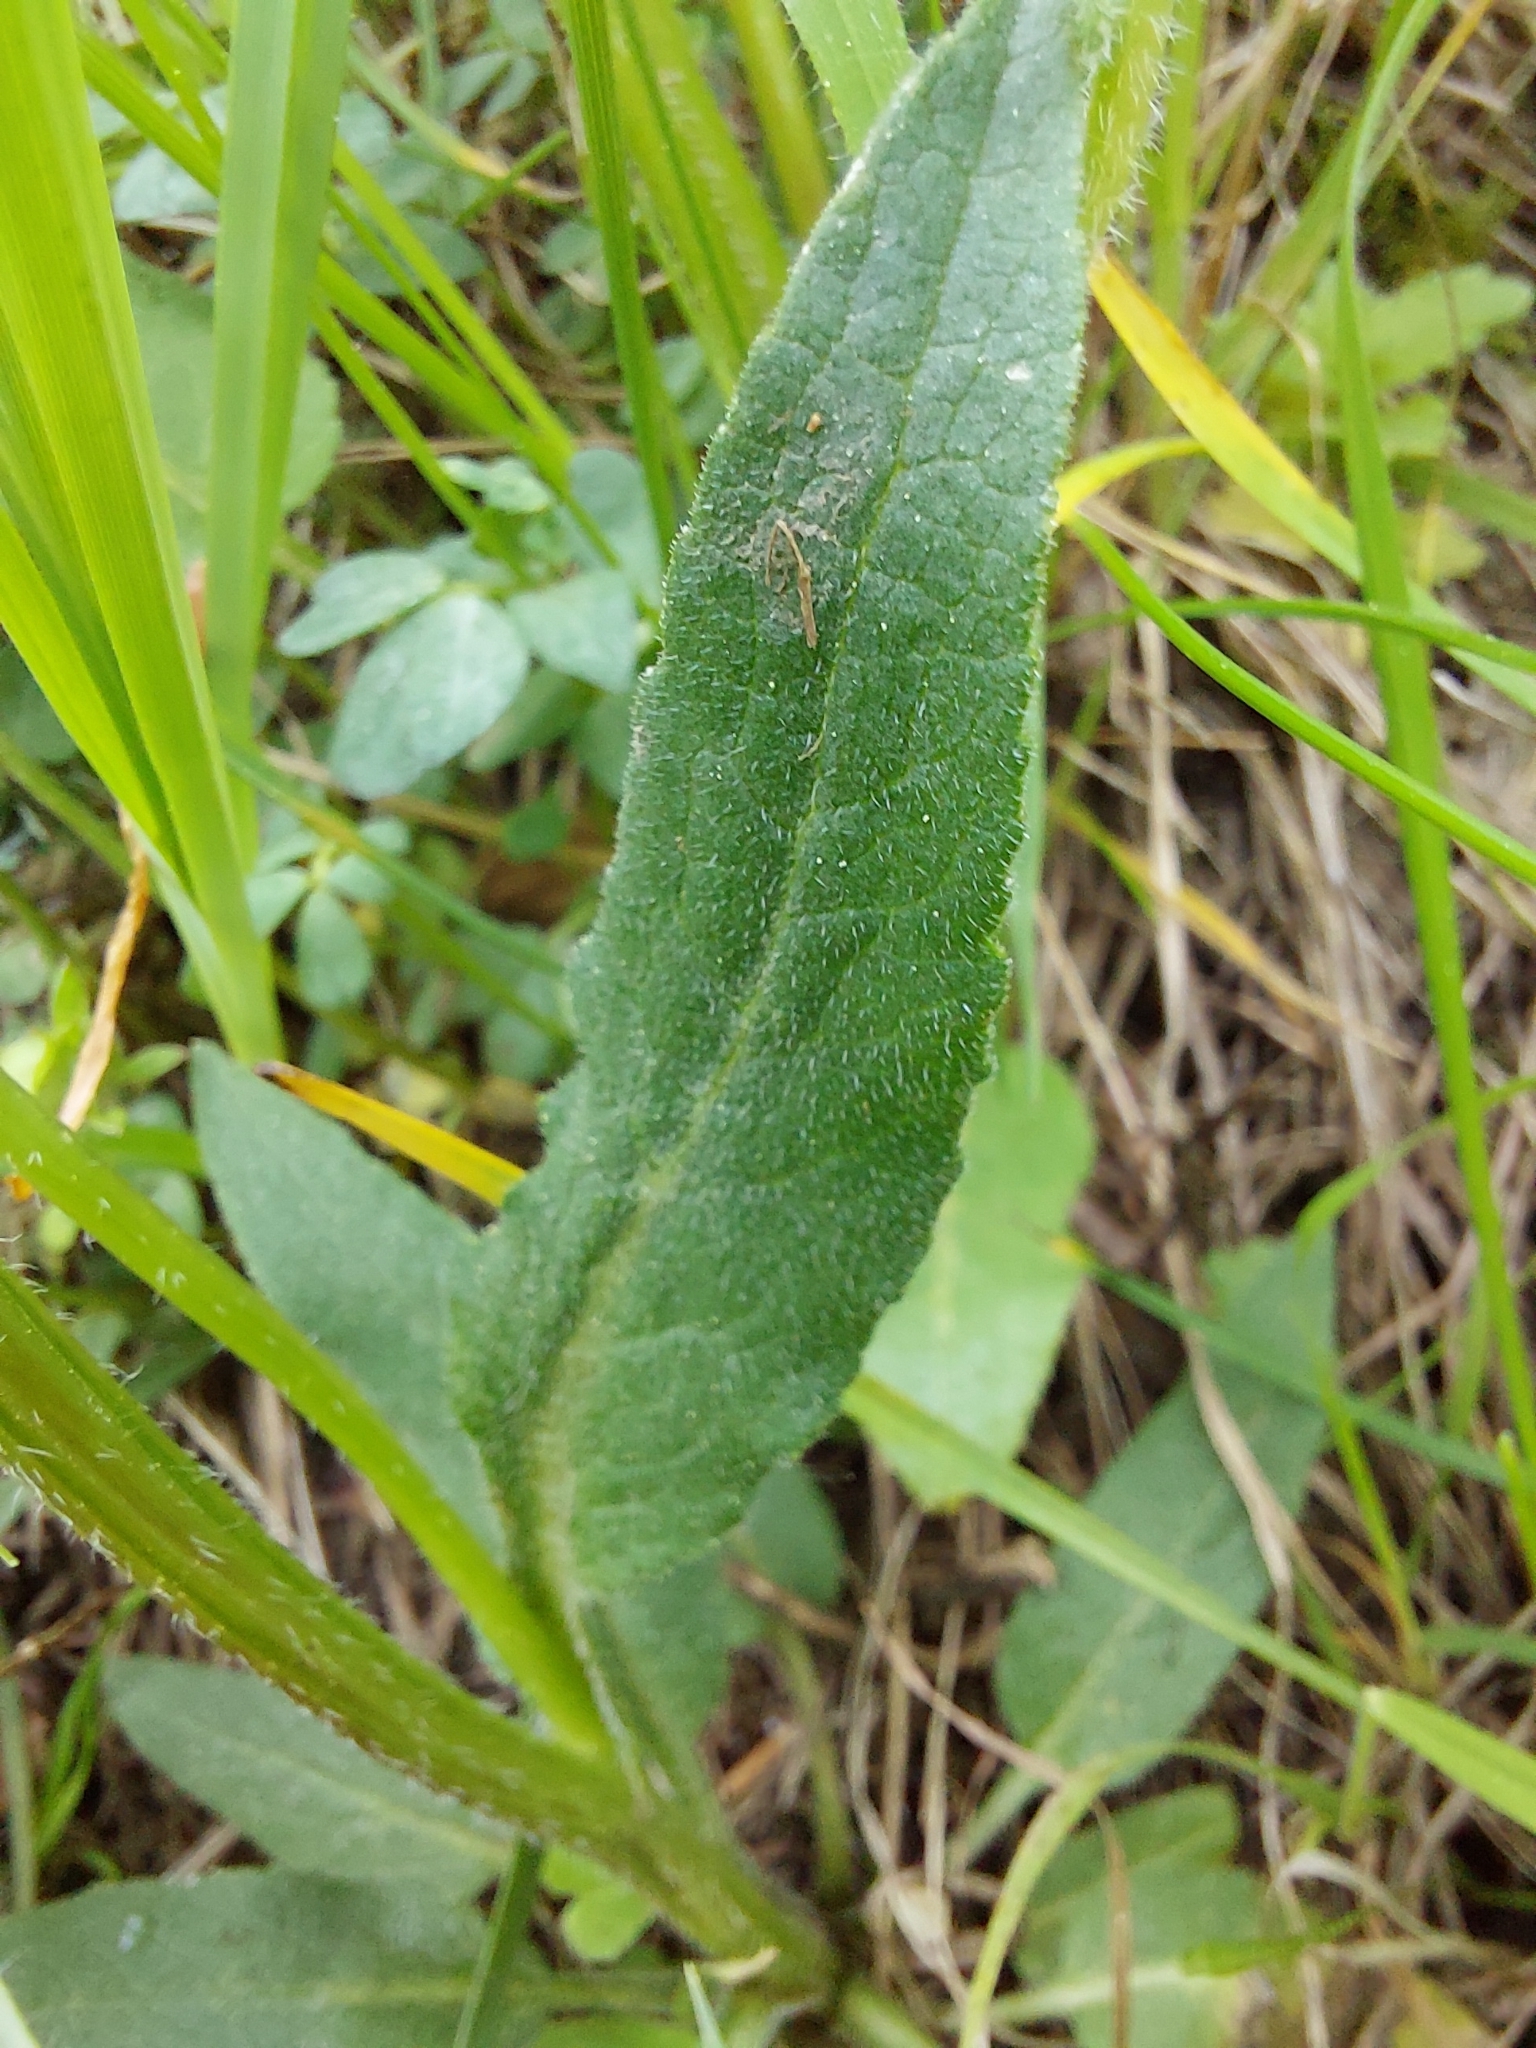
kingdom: Plantae
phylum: Tracheophyta
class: Magnoliopsida
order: Asterales
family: Campanulaceae
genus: Campanula
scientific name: Campanula glomerata
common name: Clustered bellflower
